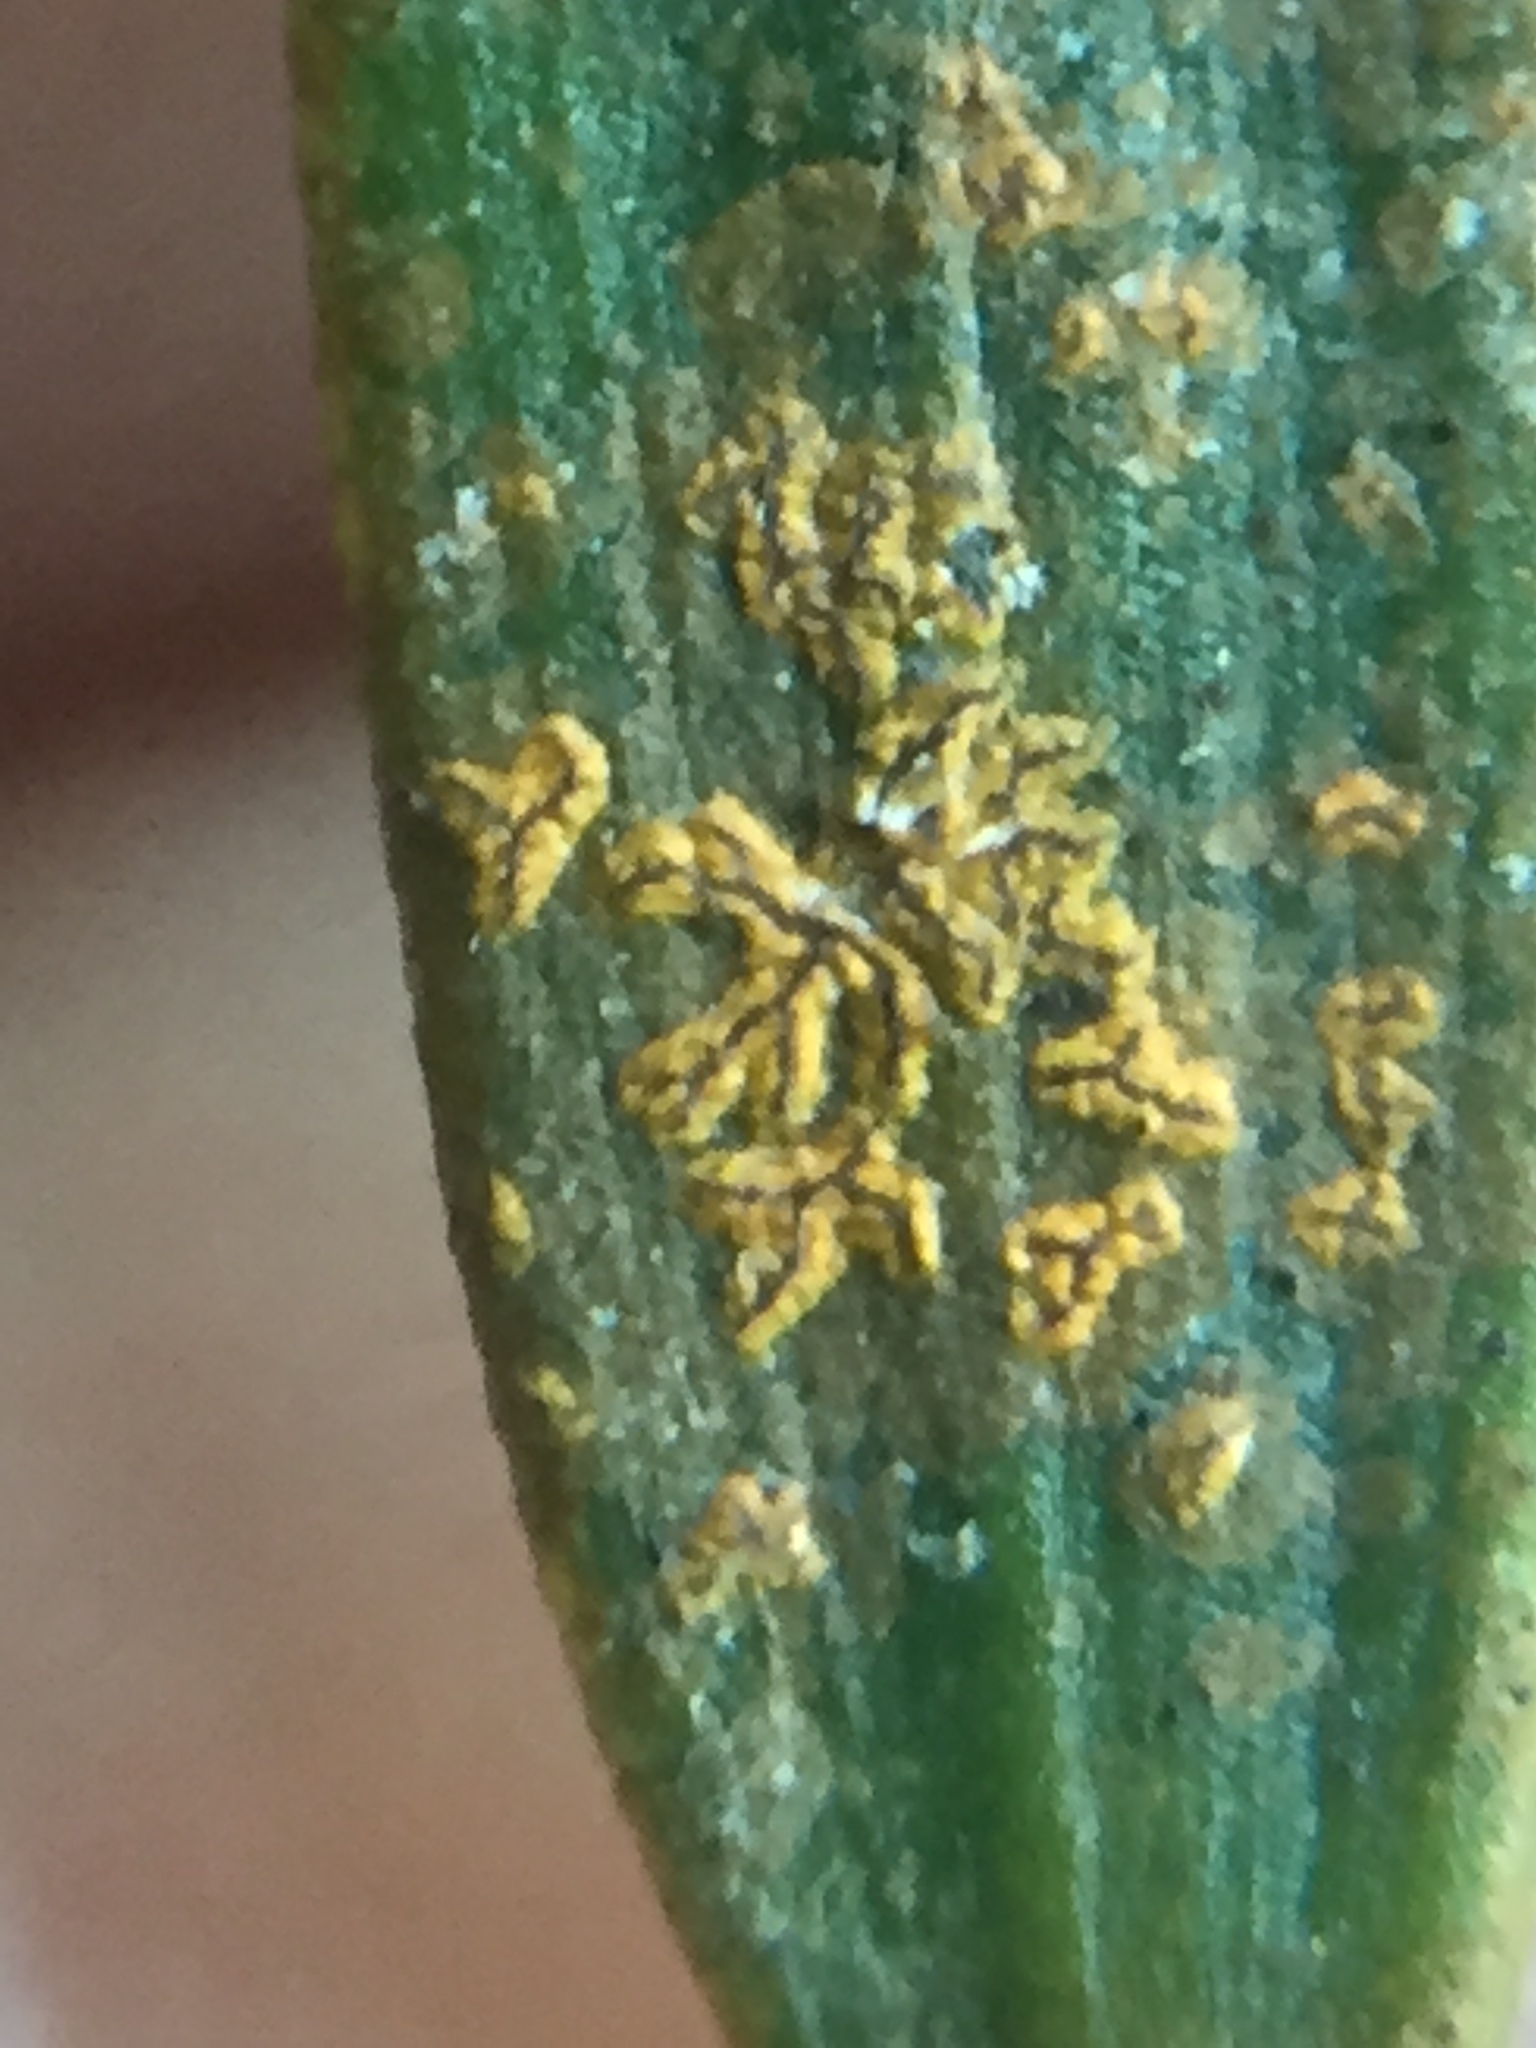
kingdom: Fungi
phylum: Ascomycota
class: Arthoniomycetes
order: Arthoniales
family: Roccellaceae
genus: Enterographa
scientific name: Enterographa bella
